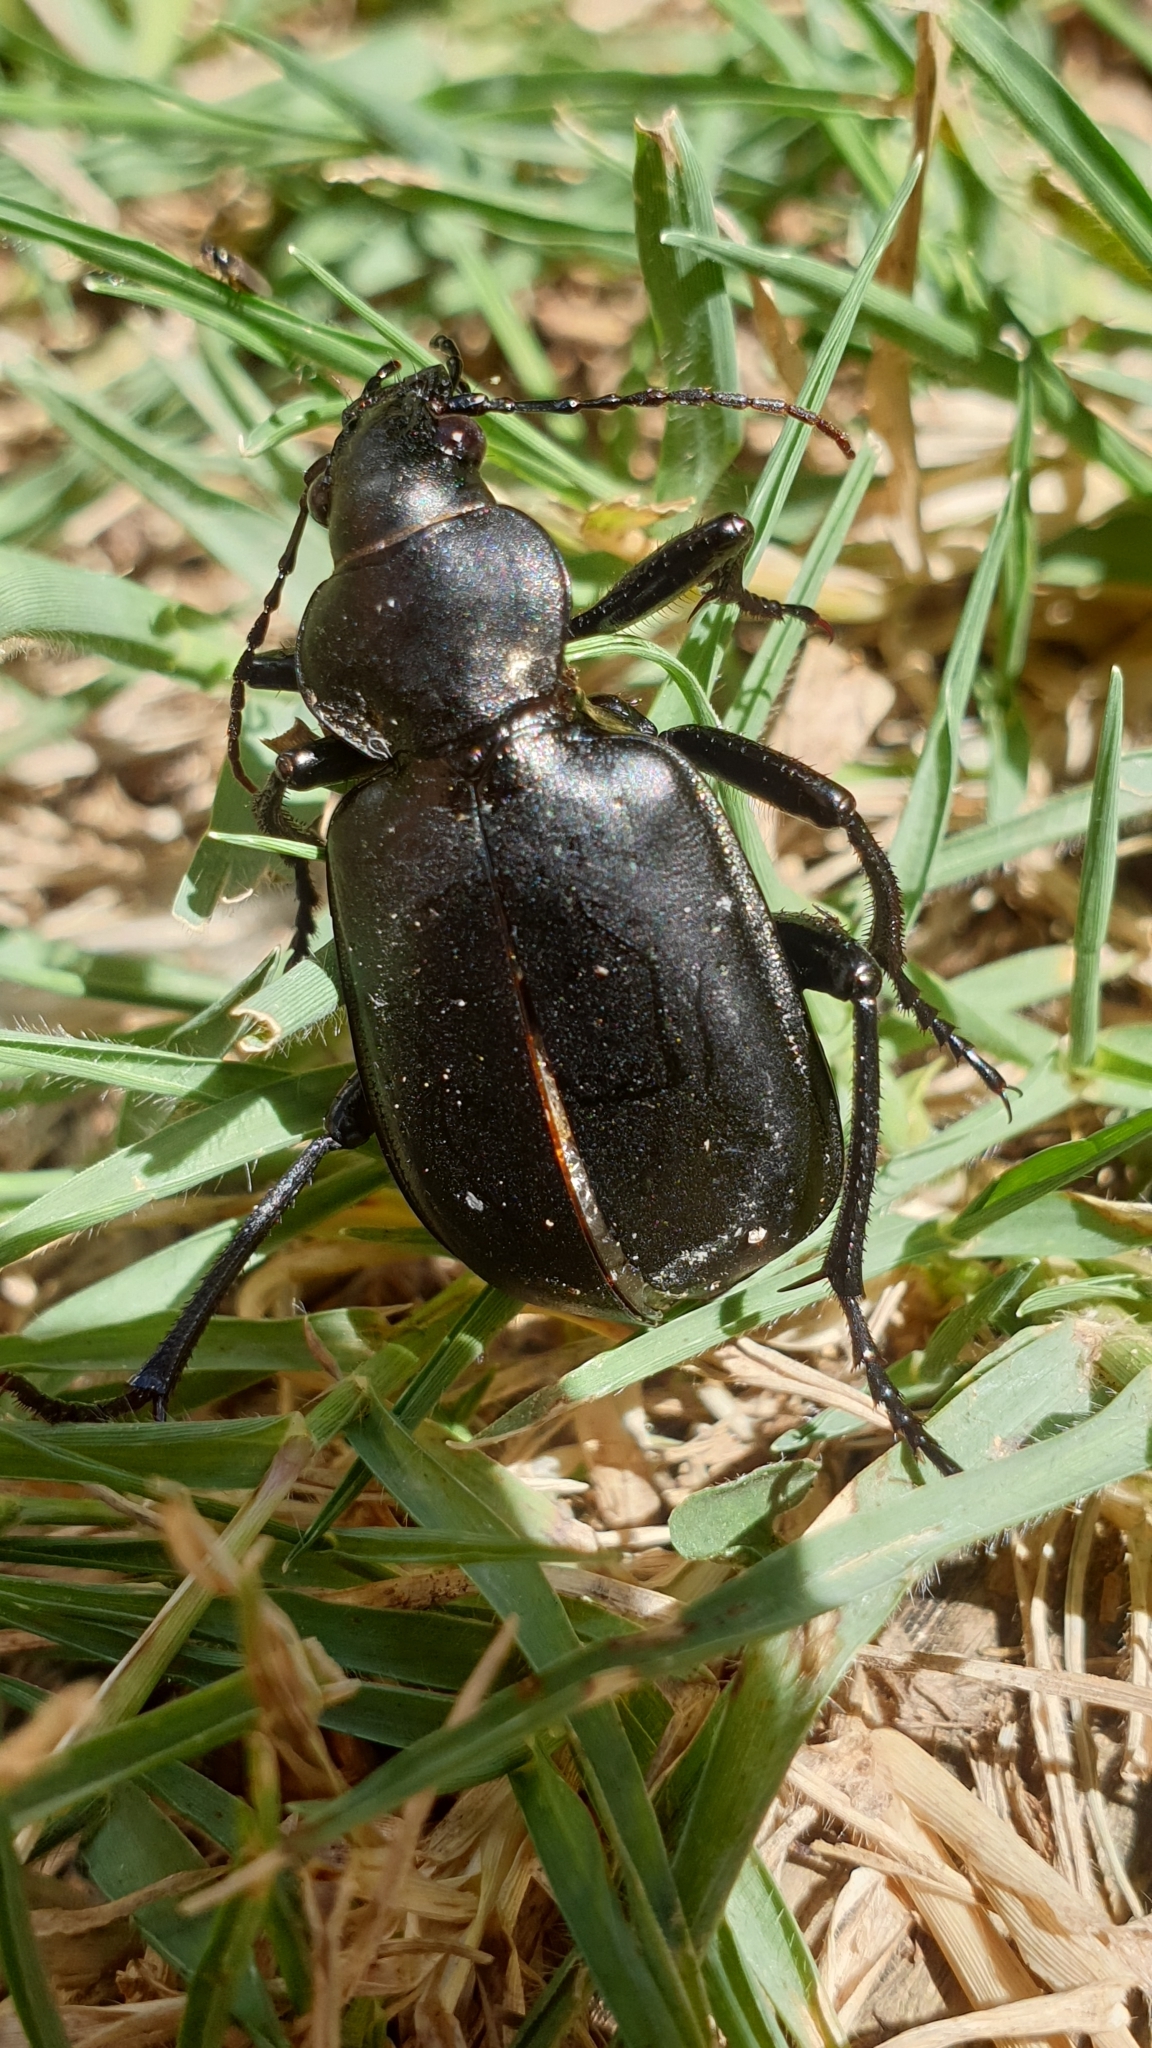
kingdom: Animalia
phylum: Arthropoda
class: Insecta
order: Coleoptera
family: Carabidae
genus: Calosoma
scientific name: Calosoma maderae
